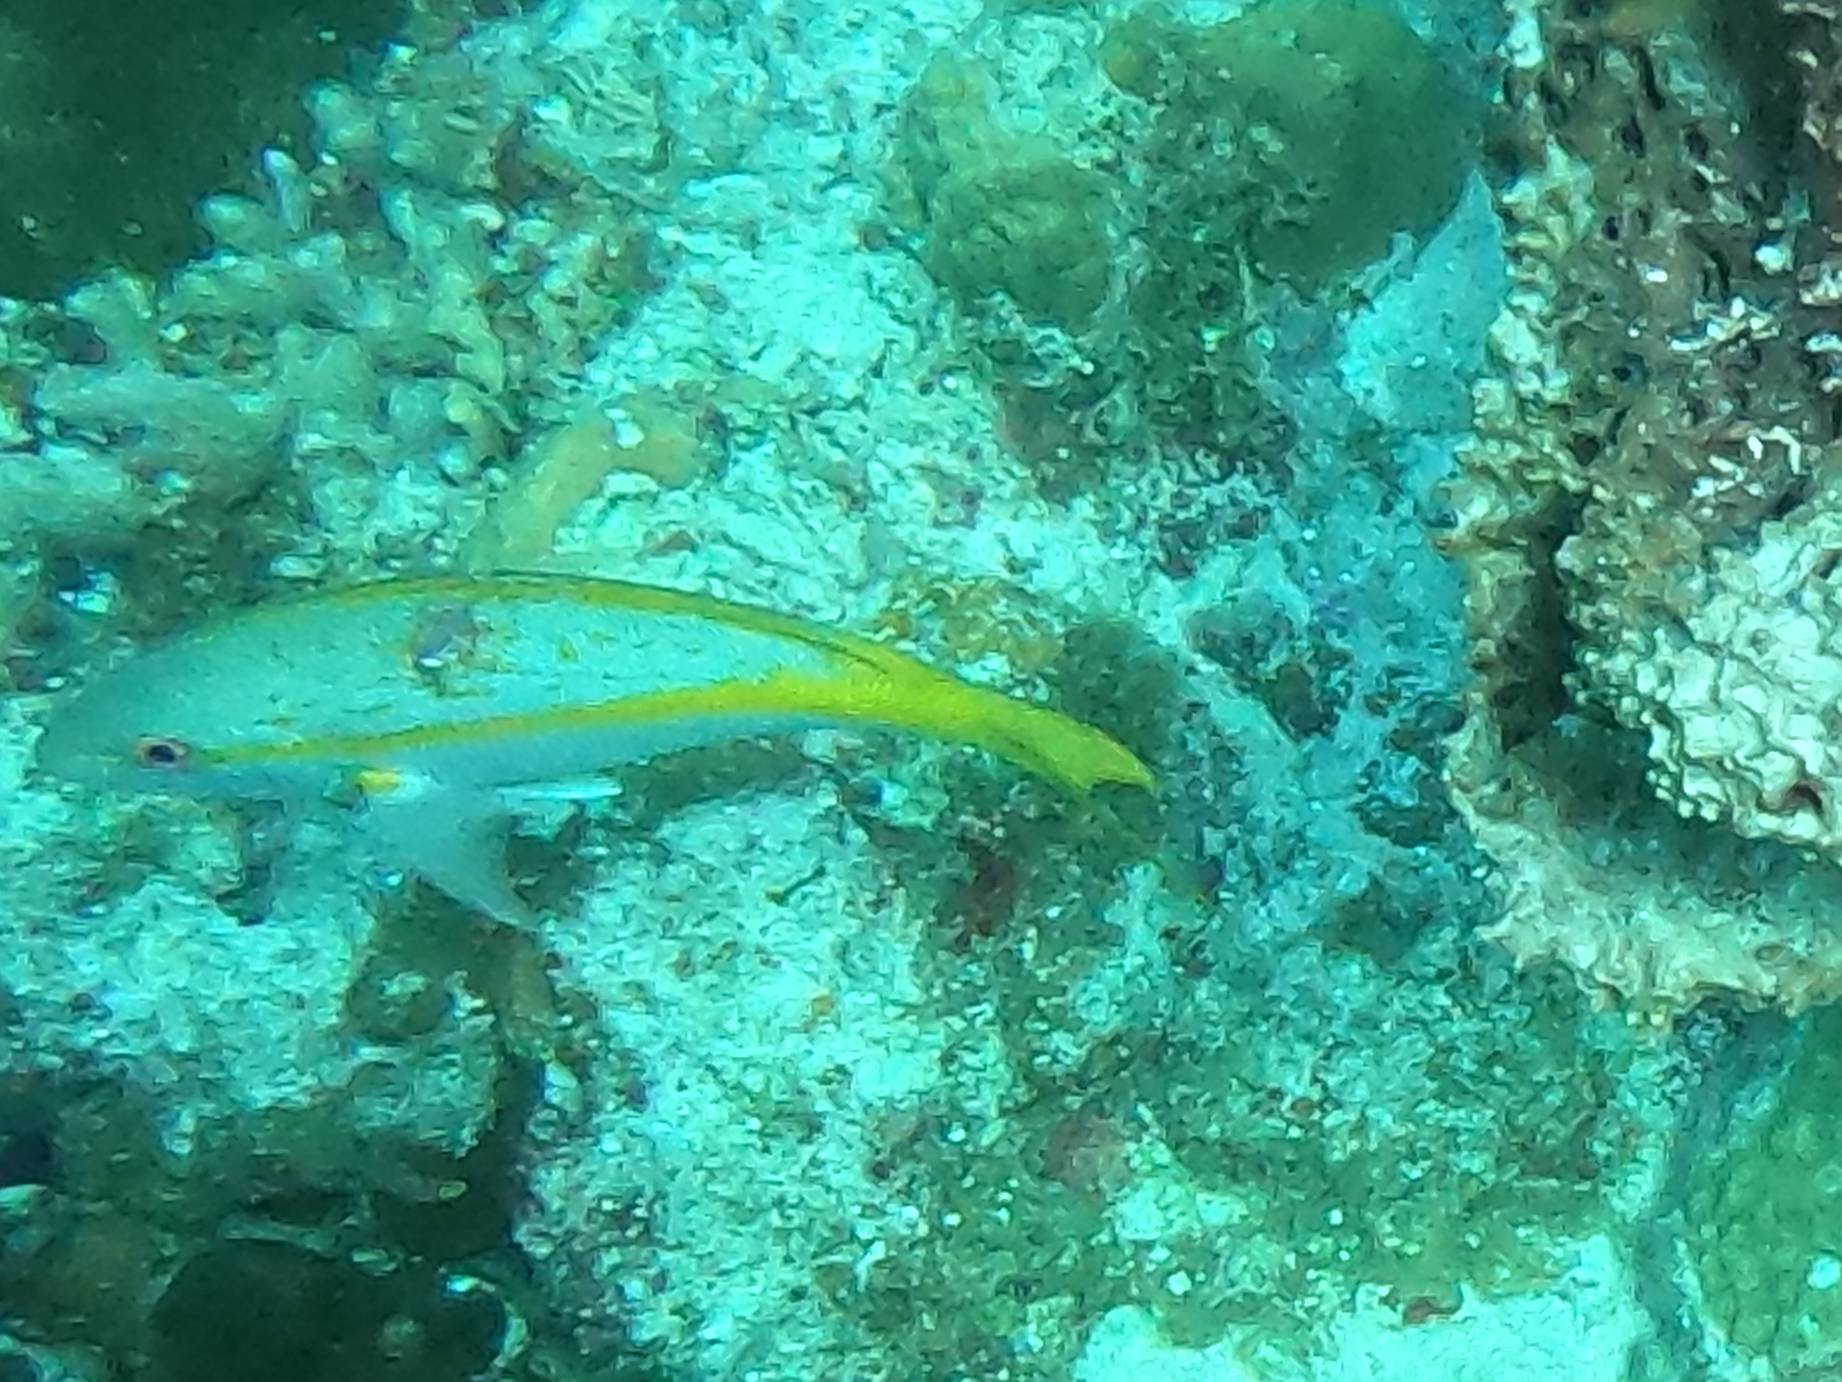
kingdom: Animalia
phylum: Chordata
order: Perciformes
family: Lutjanidae
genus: Ocyurus
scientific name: Ocyurus chrysurus
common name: Yellowtail snapper
